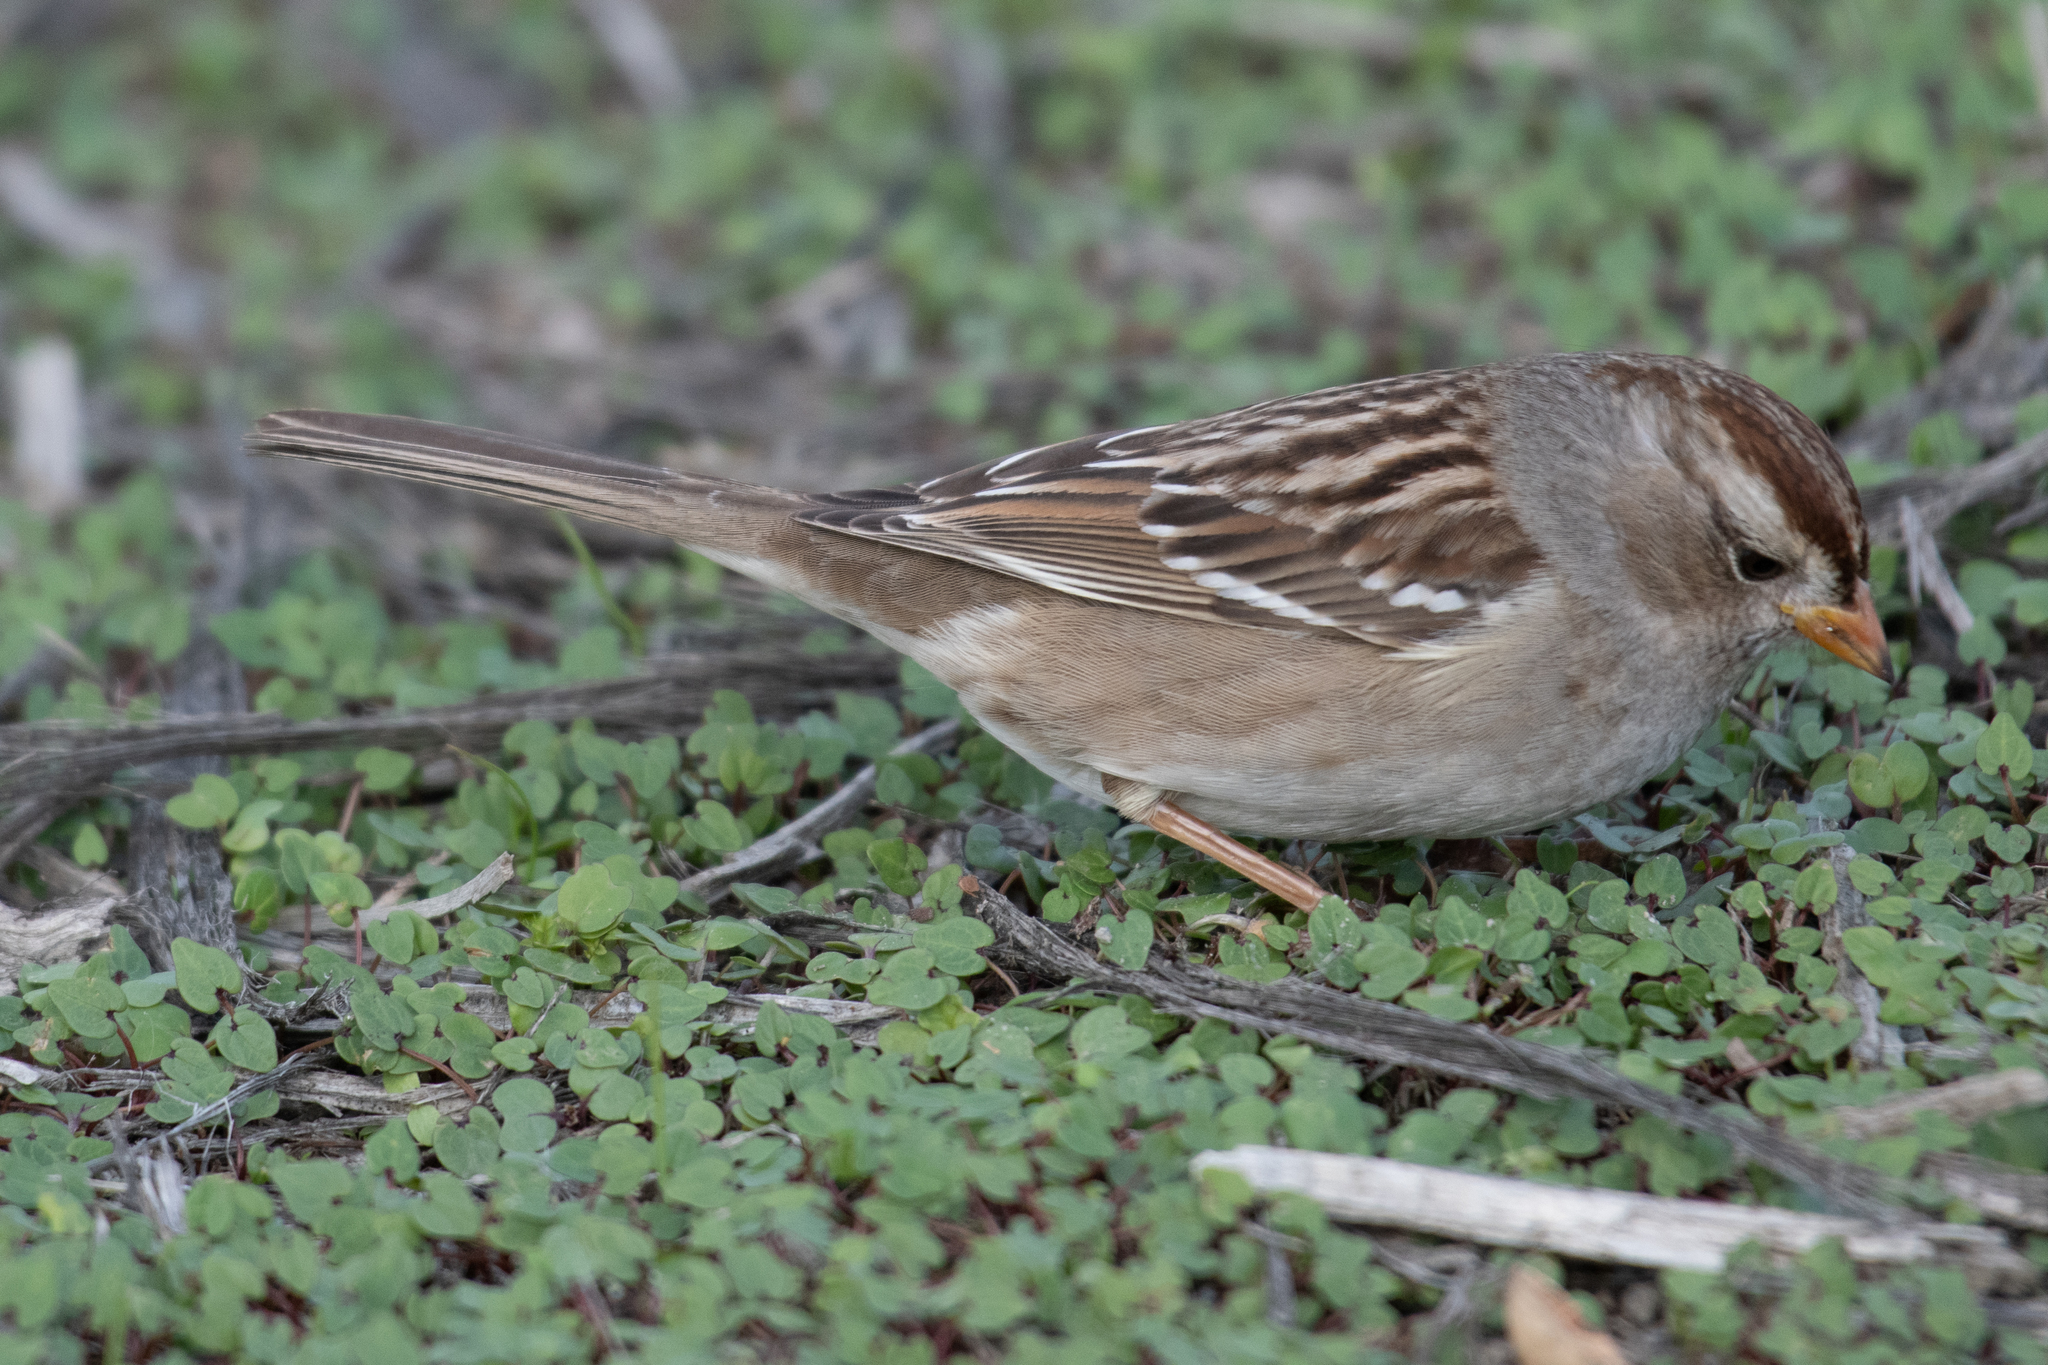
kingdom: Animalia
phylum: Chordata
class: Aves
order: Passeriformes
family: Passerellidae
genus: Zonotrichia
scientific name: Zonotrichia leucophrys
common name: White-crowned sparrow
